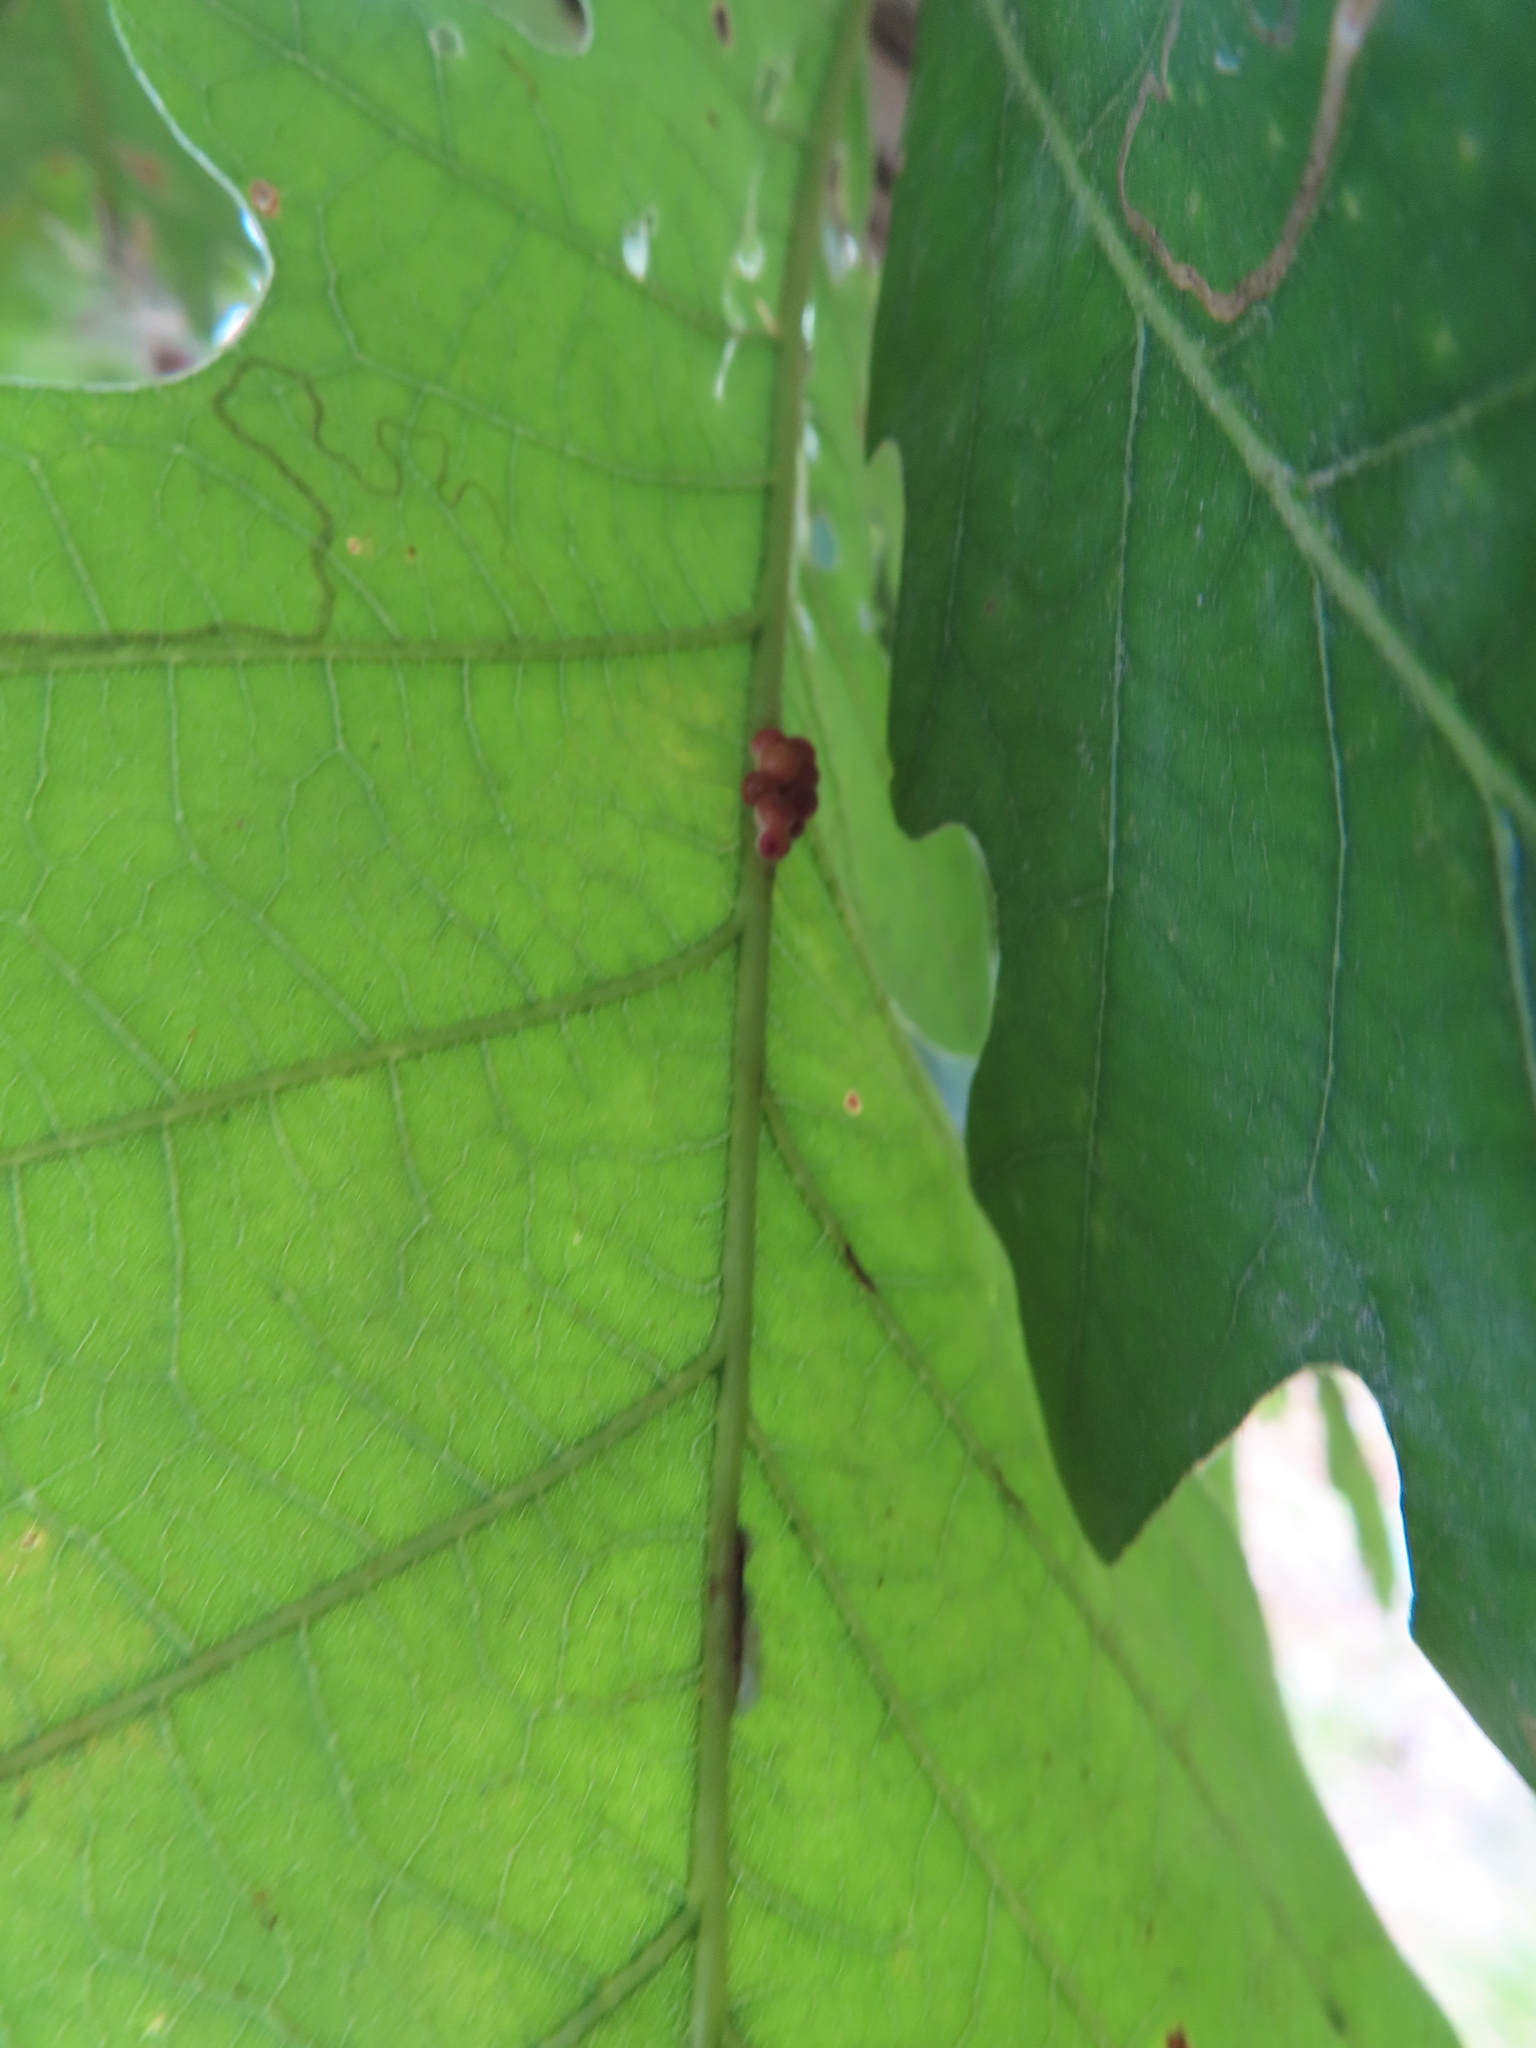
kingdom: Animalia
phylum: Arthropoda
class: Insecta
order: Hymenoptera
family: Cynipidae
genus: Andricus
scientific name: Andricus
